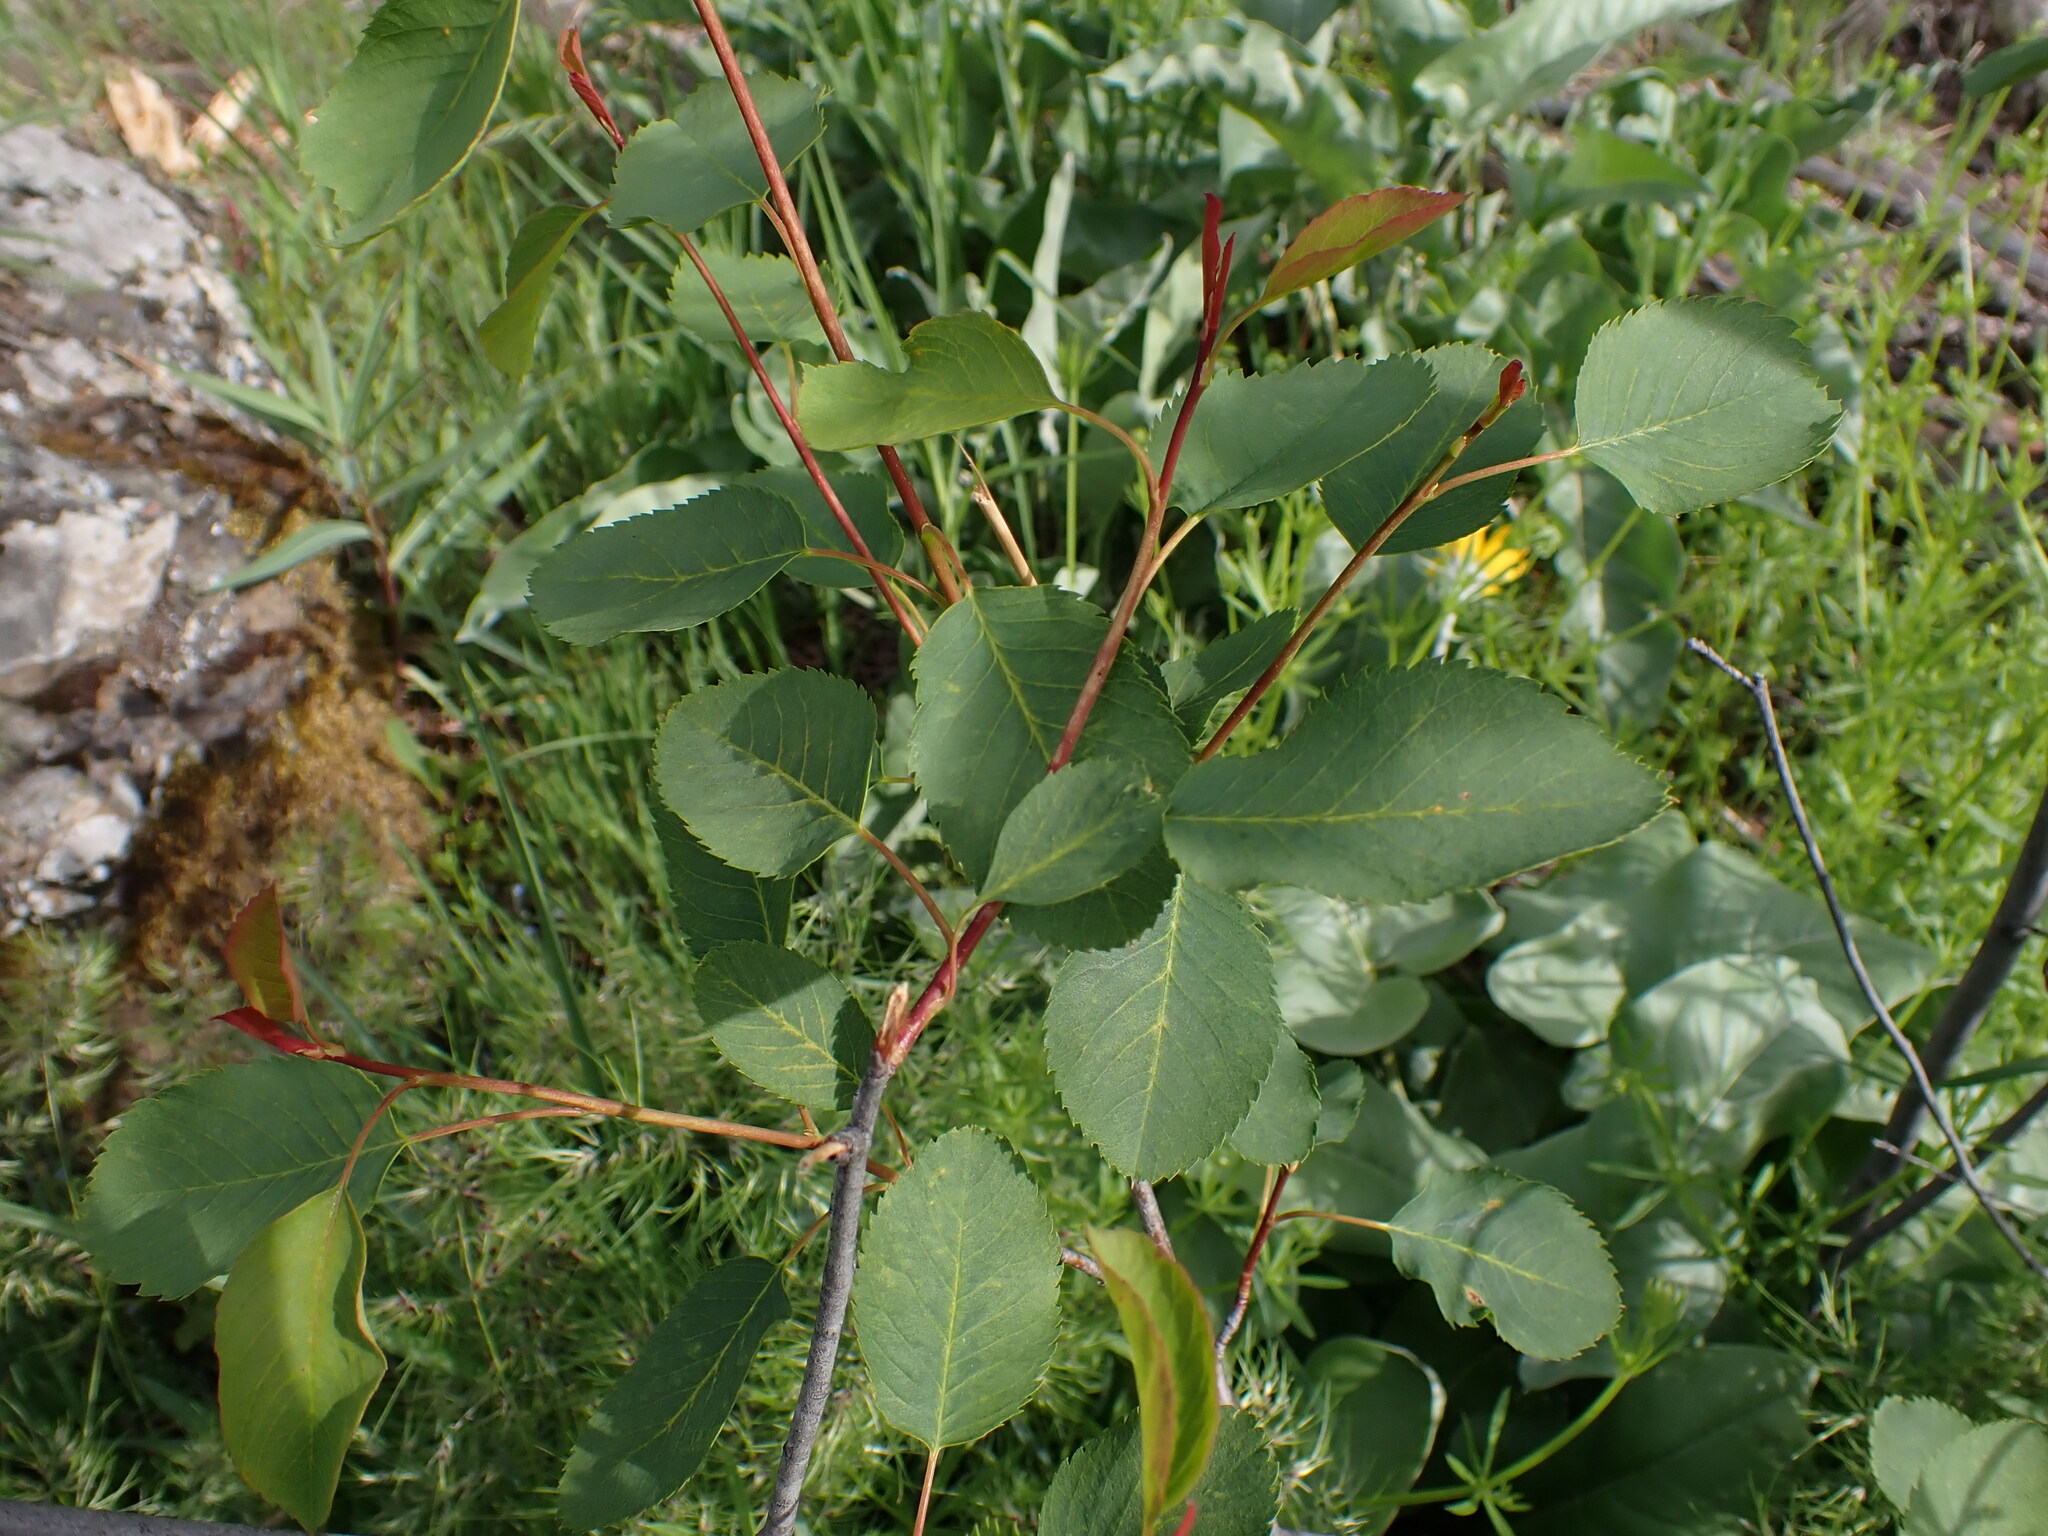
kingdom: Plantae
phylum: Tracheophyta
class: Magnoliopsida
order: Rosales
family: Rosaceae
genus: Amelanchier
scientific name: Amelanchier alnifolia
